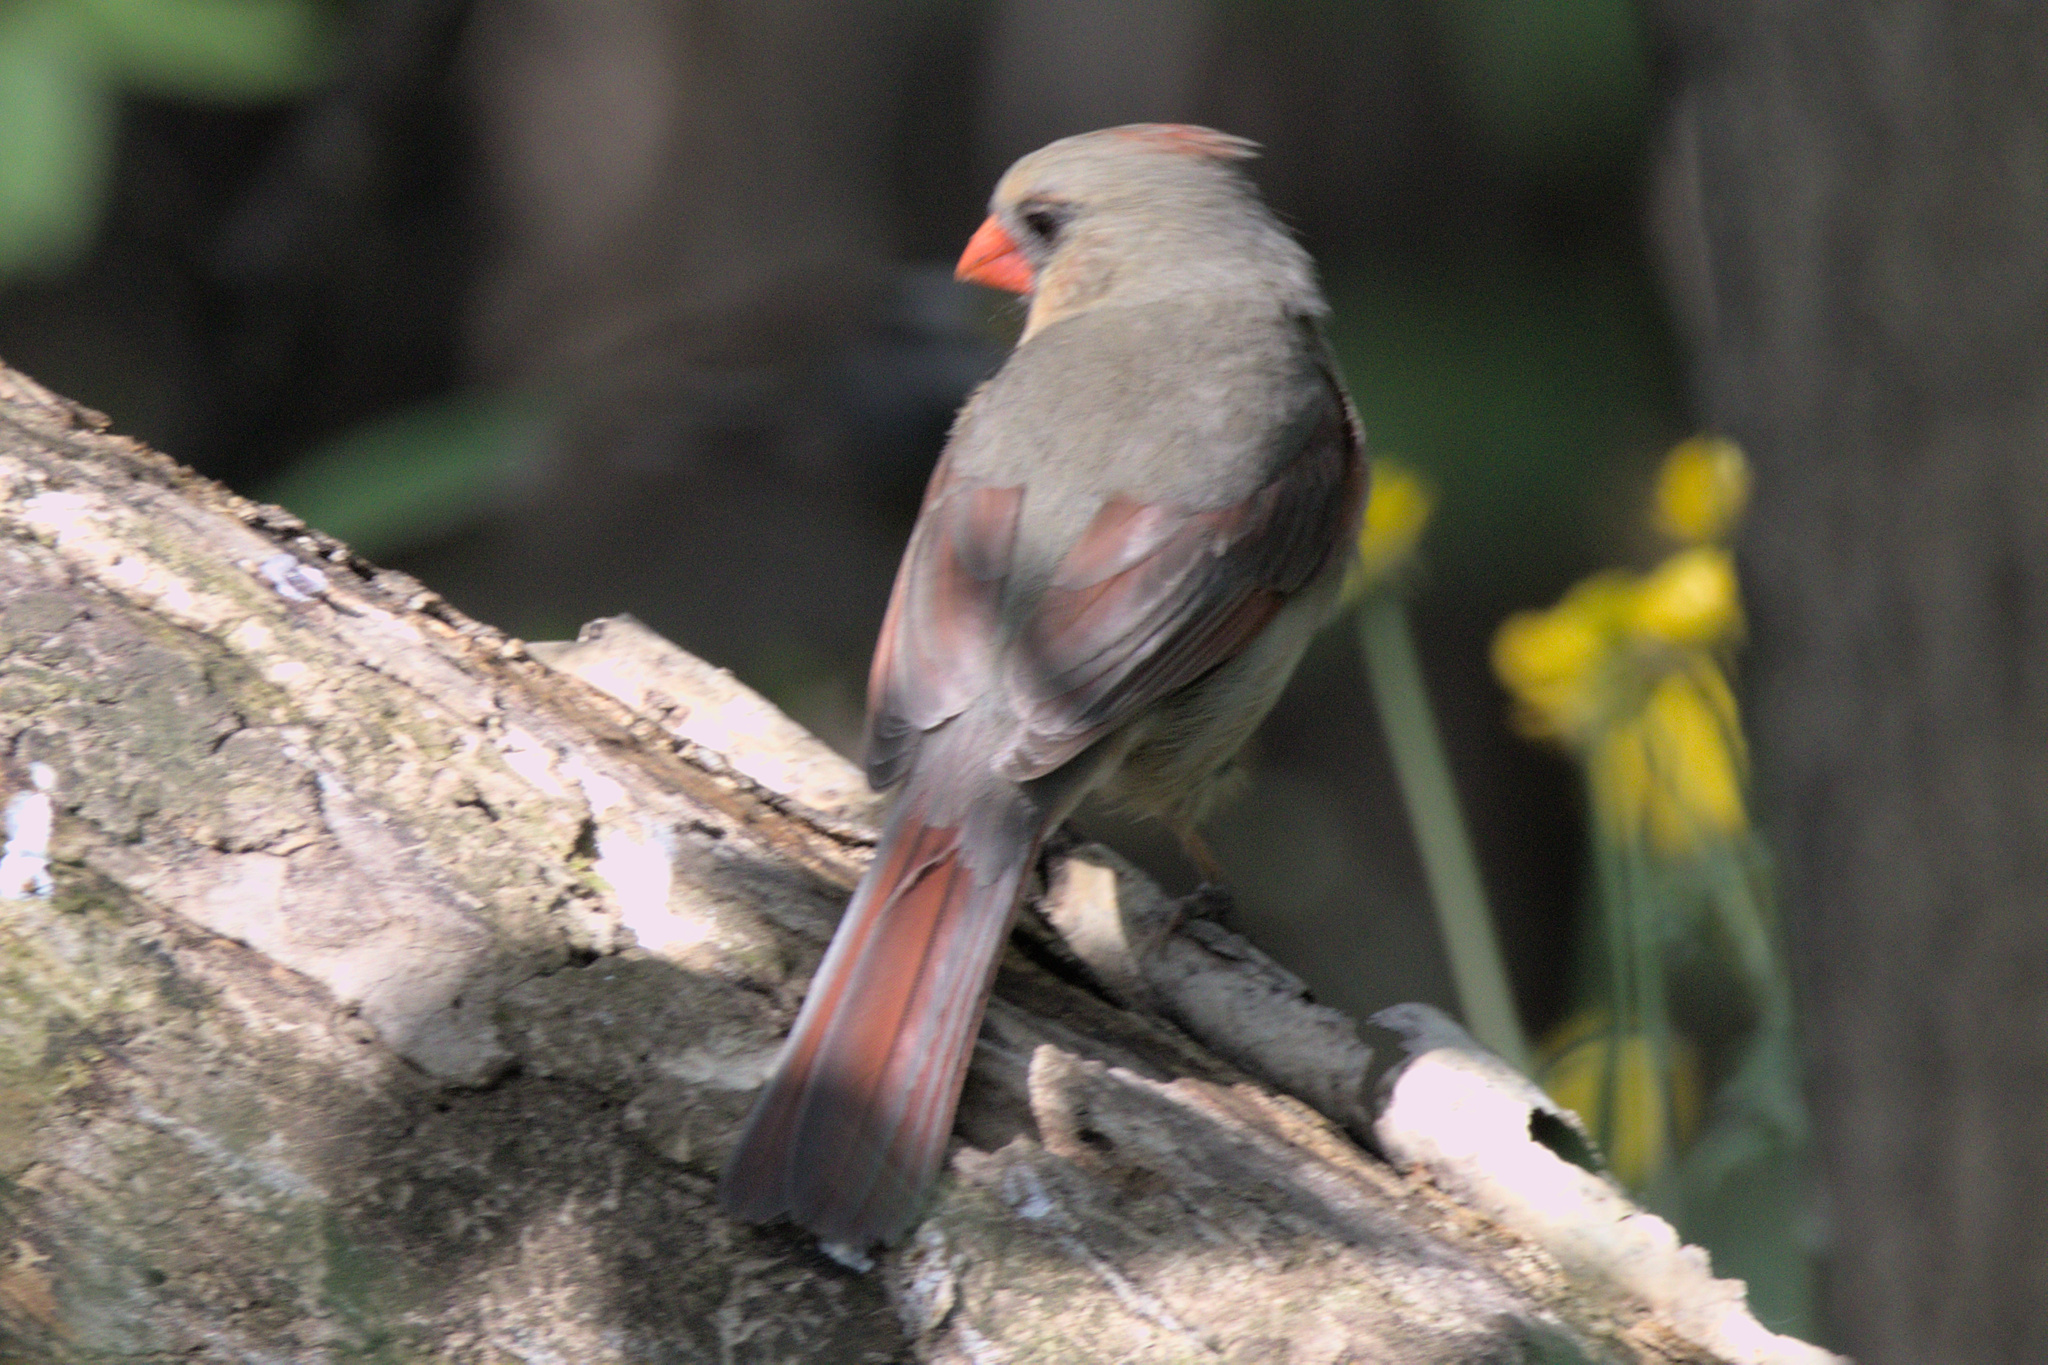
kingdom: Animalia
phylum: Chordata
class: Aves
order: Passeriformes
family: Cardinalidae
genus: Cardinalis
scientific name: Cardinalis cardinalis
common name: Northern cardinal
